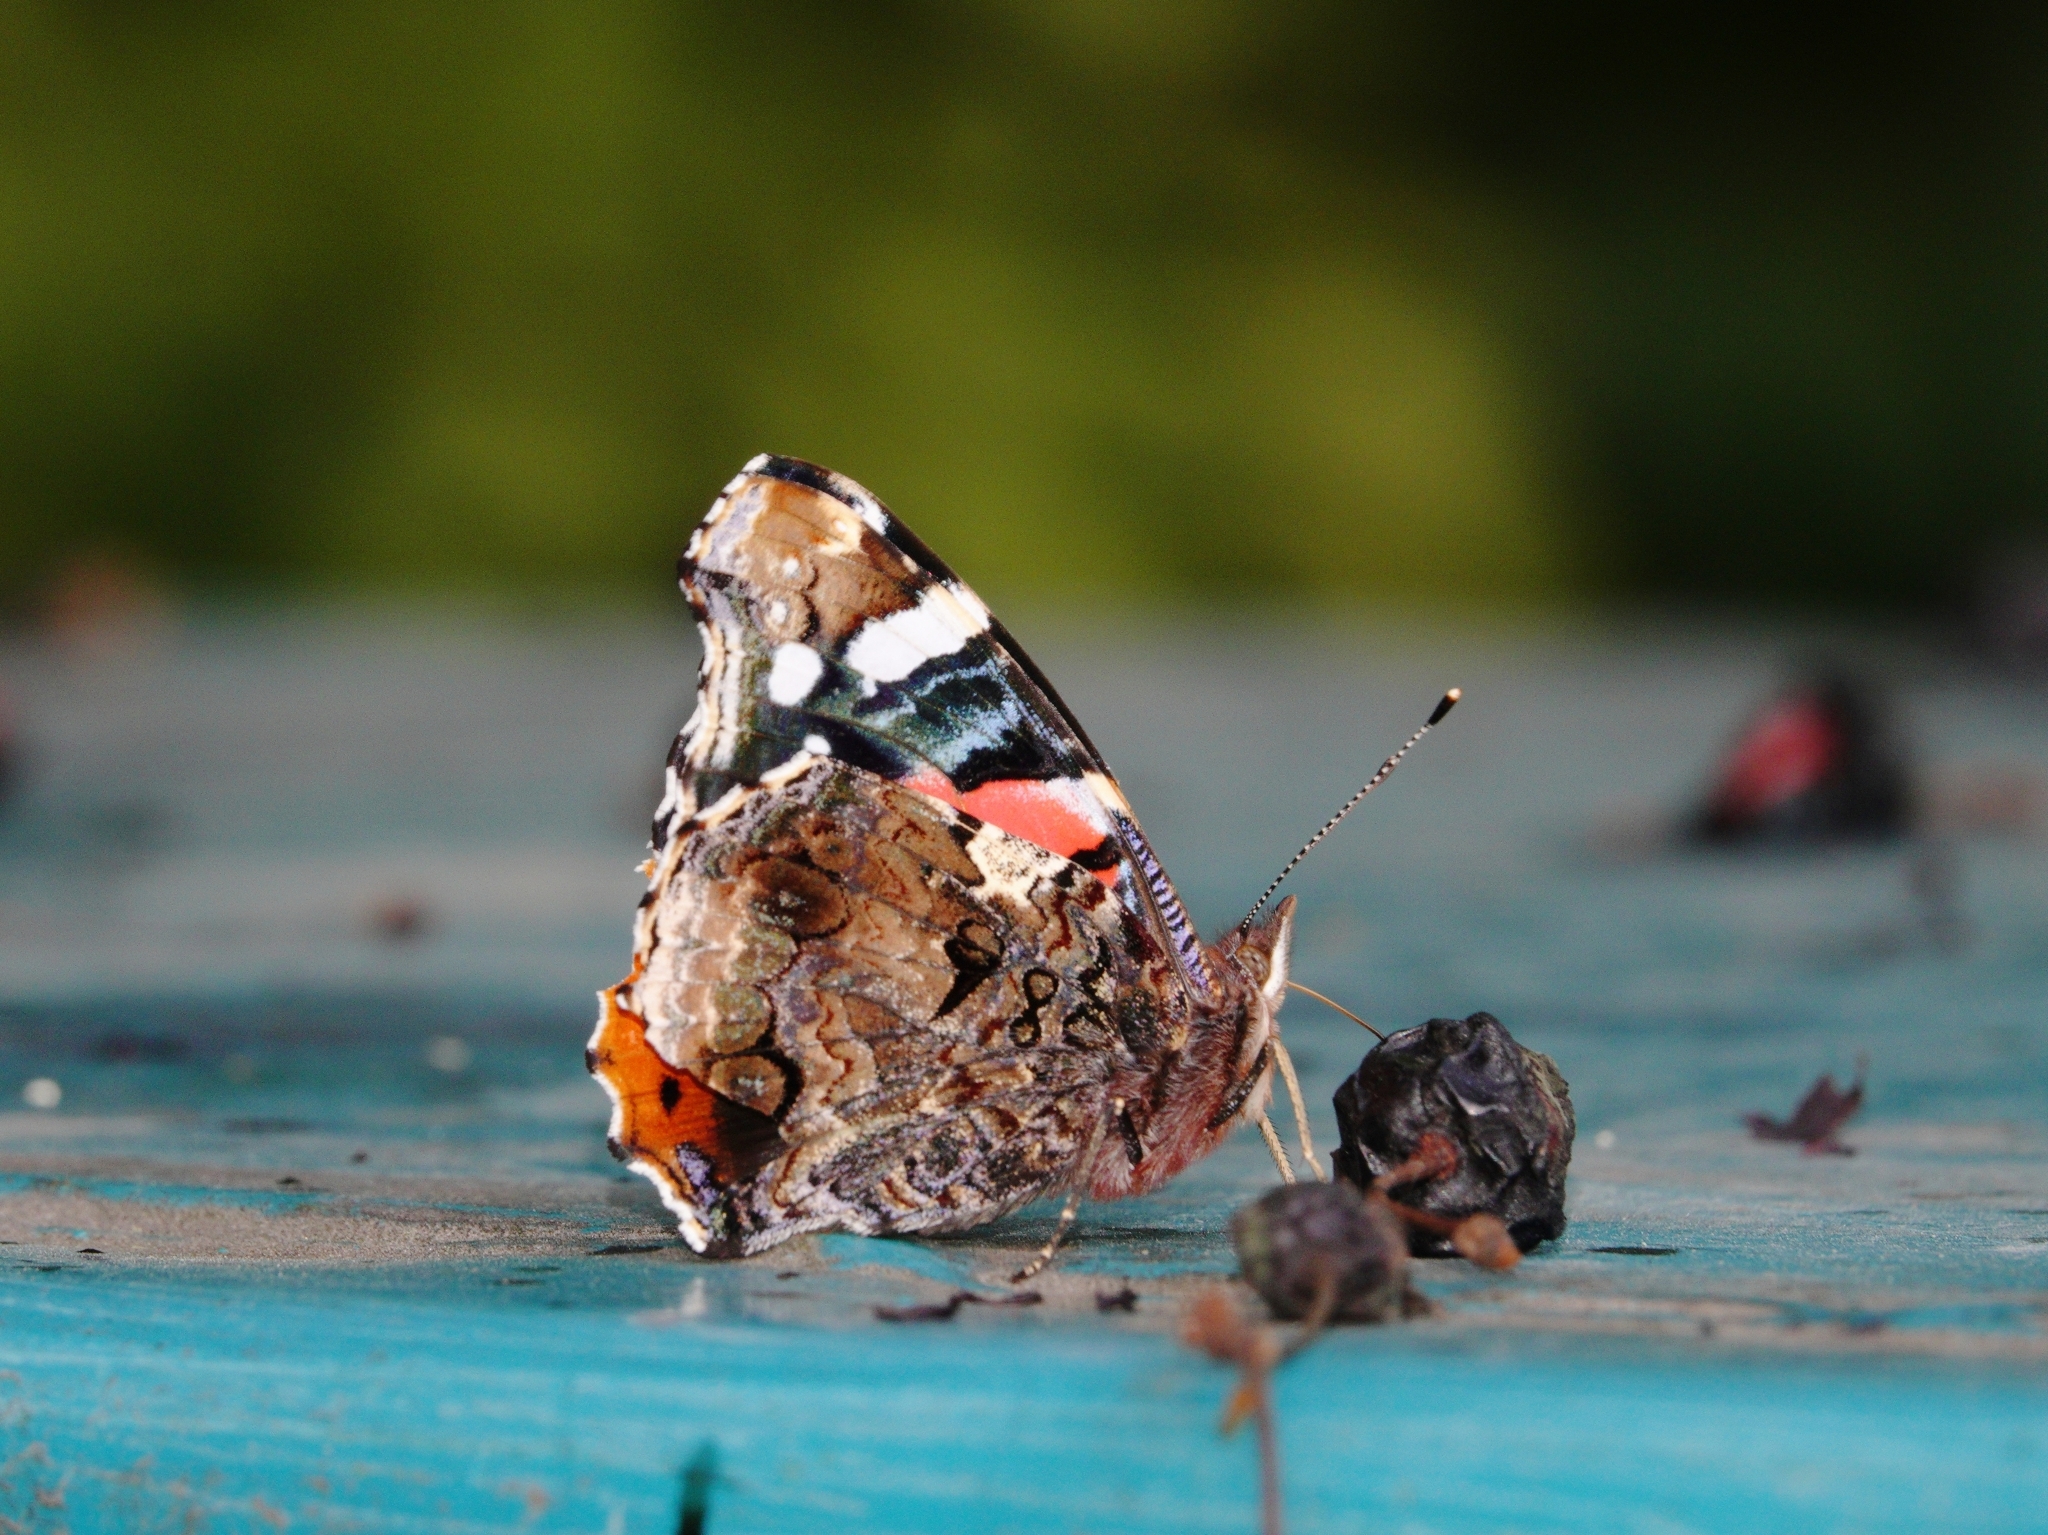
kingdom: Animalia
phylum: Arthropoda
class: Insecta
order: Lepidoptera
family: Nymphalidae
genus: Vanessa
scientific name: Vanessa atalanta
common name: Red admiral
